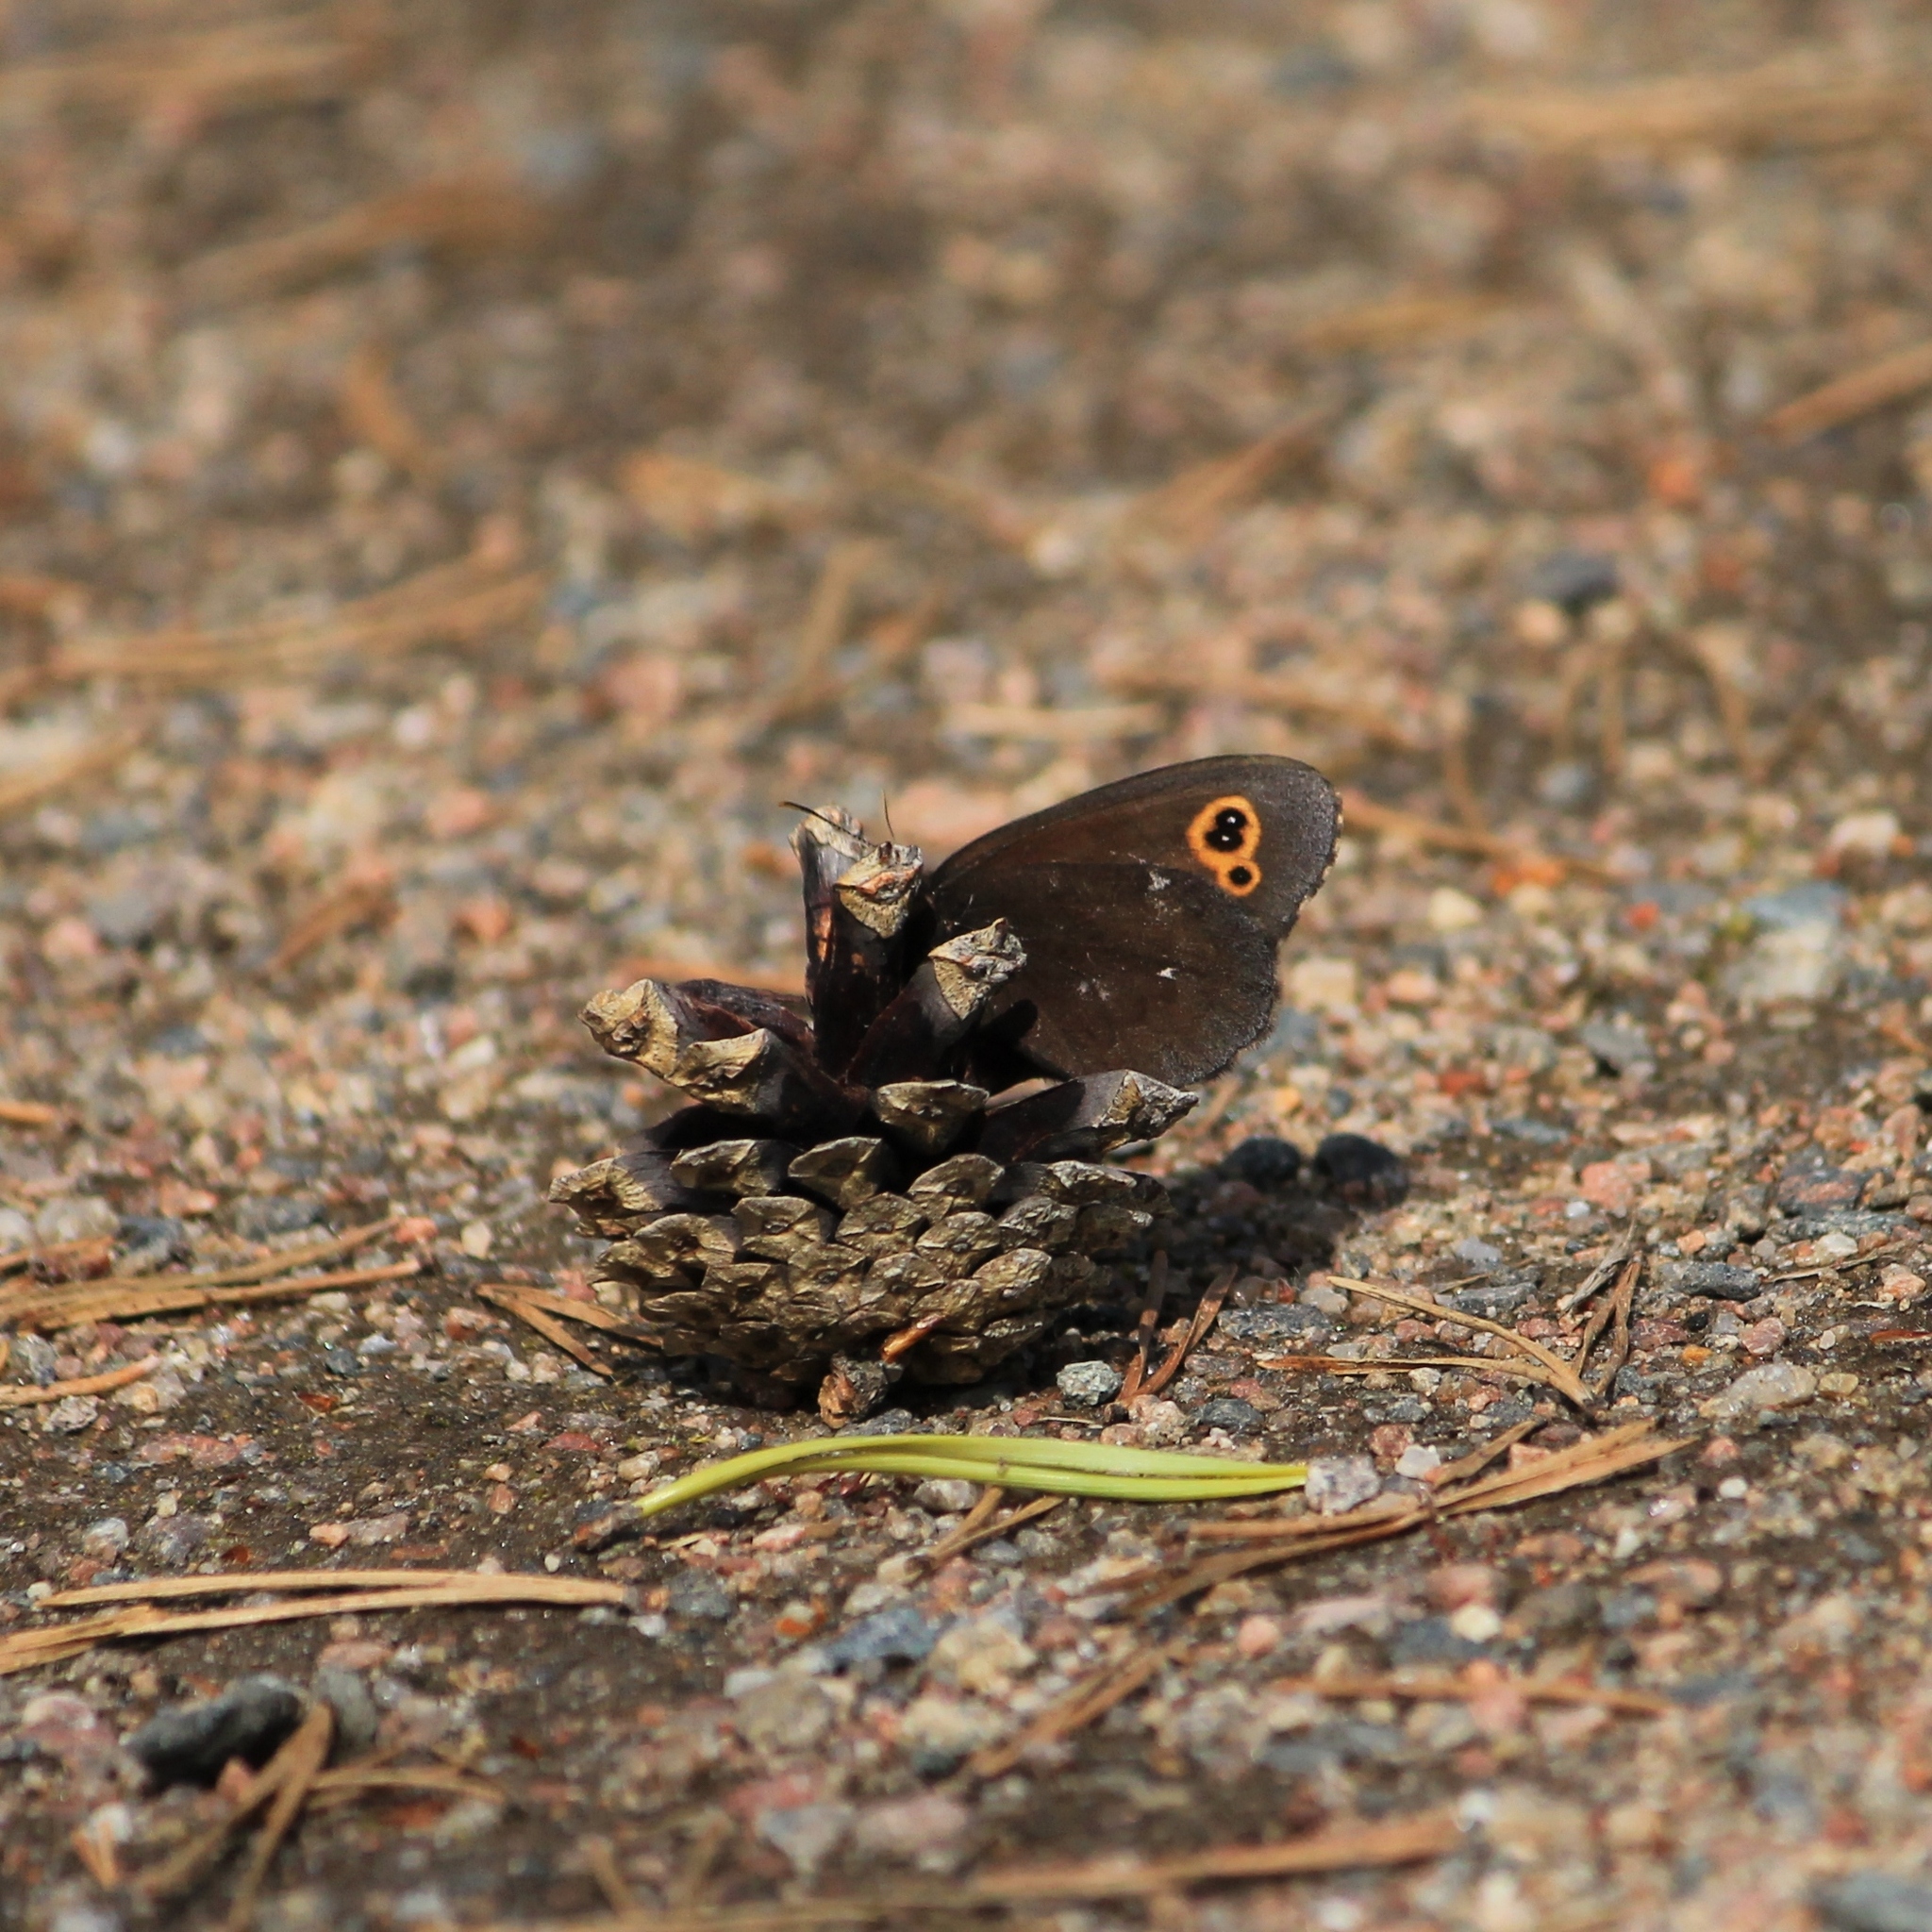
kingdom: Animalia
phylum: Arthropoda
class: Insecta
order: Lepidoptera
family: Nymphalidae
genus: Erebia
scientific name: Erebia embla
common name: Lapland ringlet
